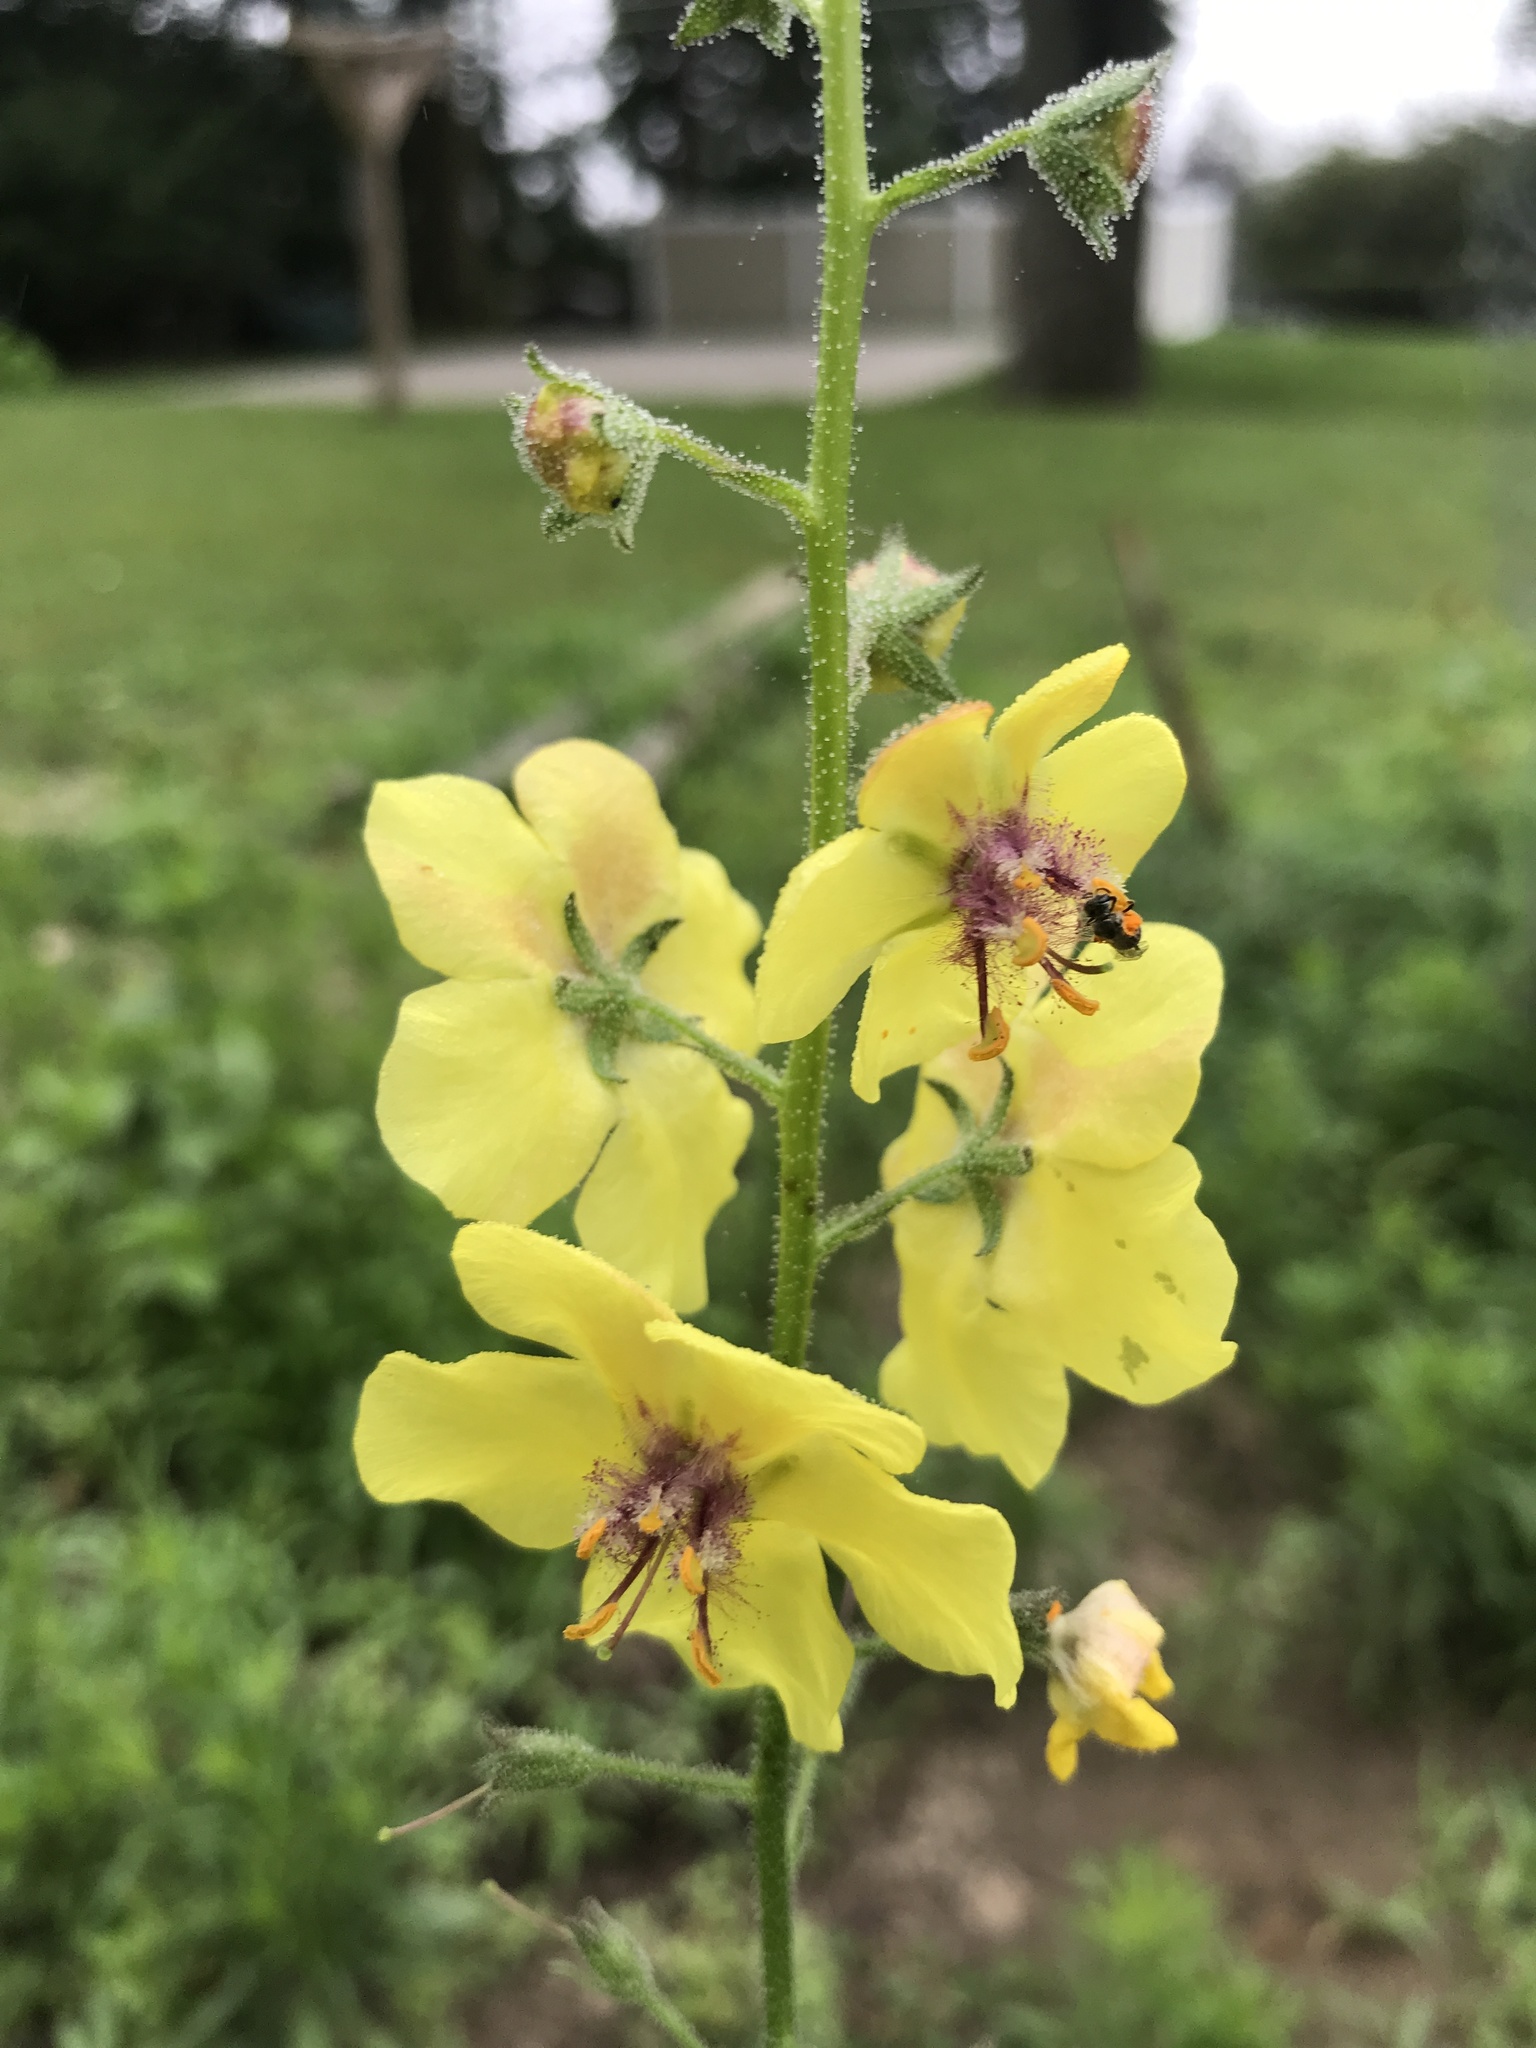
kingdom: Plantae
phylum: Tracheophyta
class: Magnoliopsida
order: Lamiales
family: Scrophulariaceae
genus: Verbascum
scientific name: Verbascum blattaria
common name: Moth mullein
